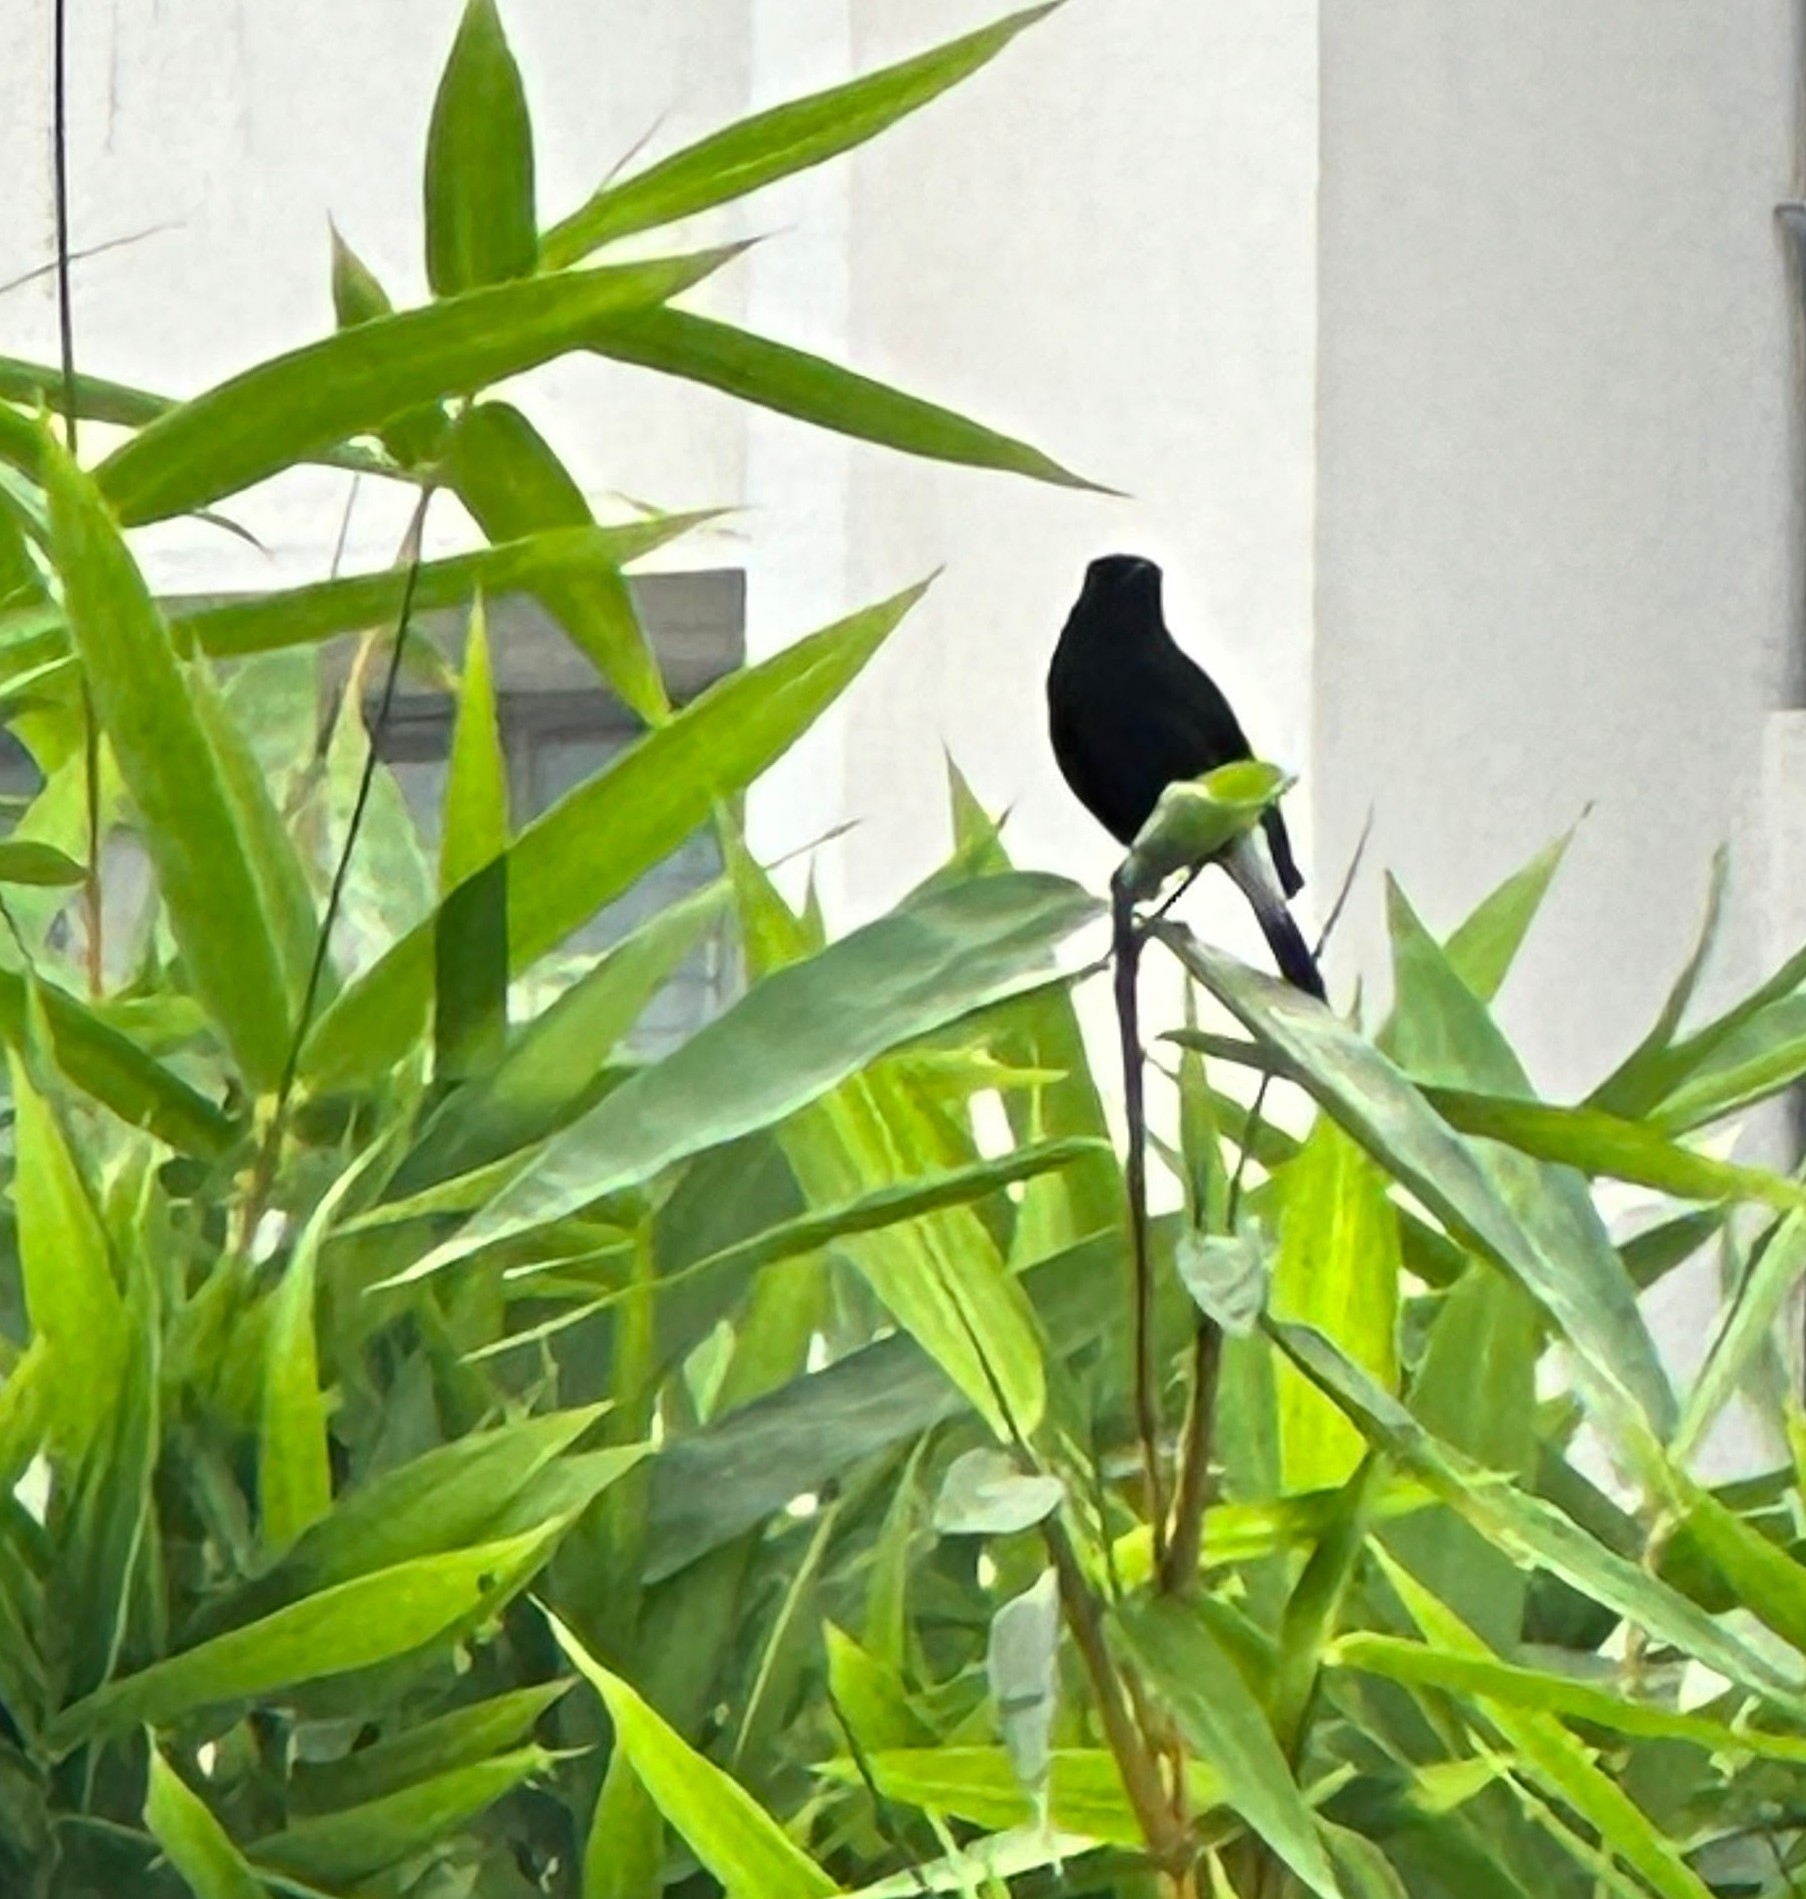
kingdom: Animalia
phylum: Chordata
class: Aves
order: Passeriformes
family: Muscicapidae
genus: Saxicola
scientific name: Saxicola caprata
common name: Pied bush chat
